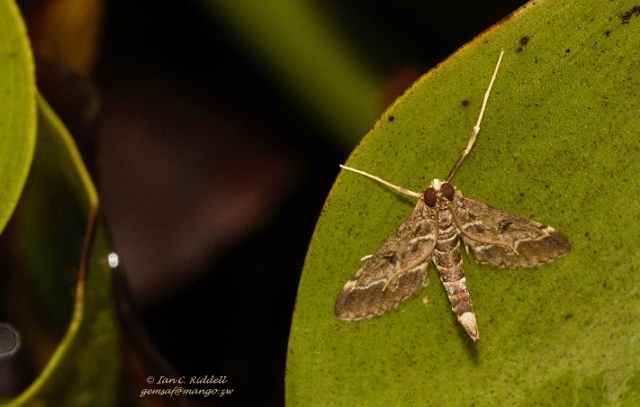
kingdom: Animalia
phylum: Arthropoda
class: Insecta
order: Lepidoptera
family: Crambidae
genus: Duponchelia
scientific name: Duponchelia fovealis
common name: Crambid moth
